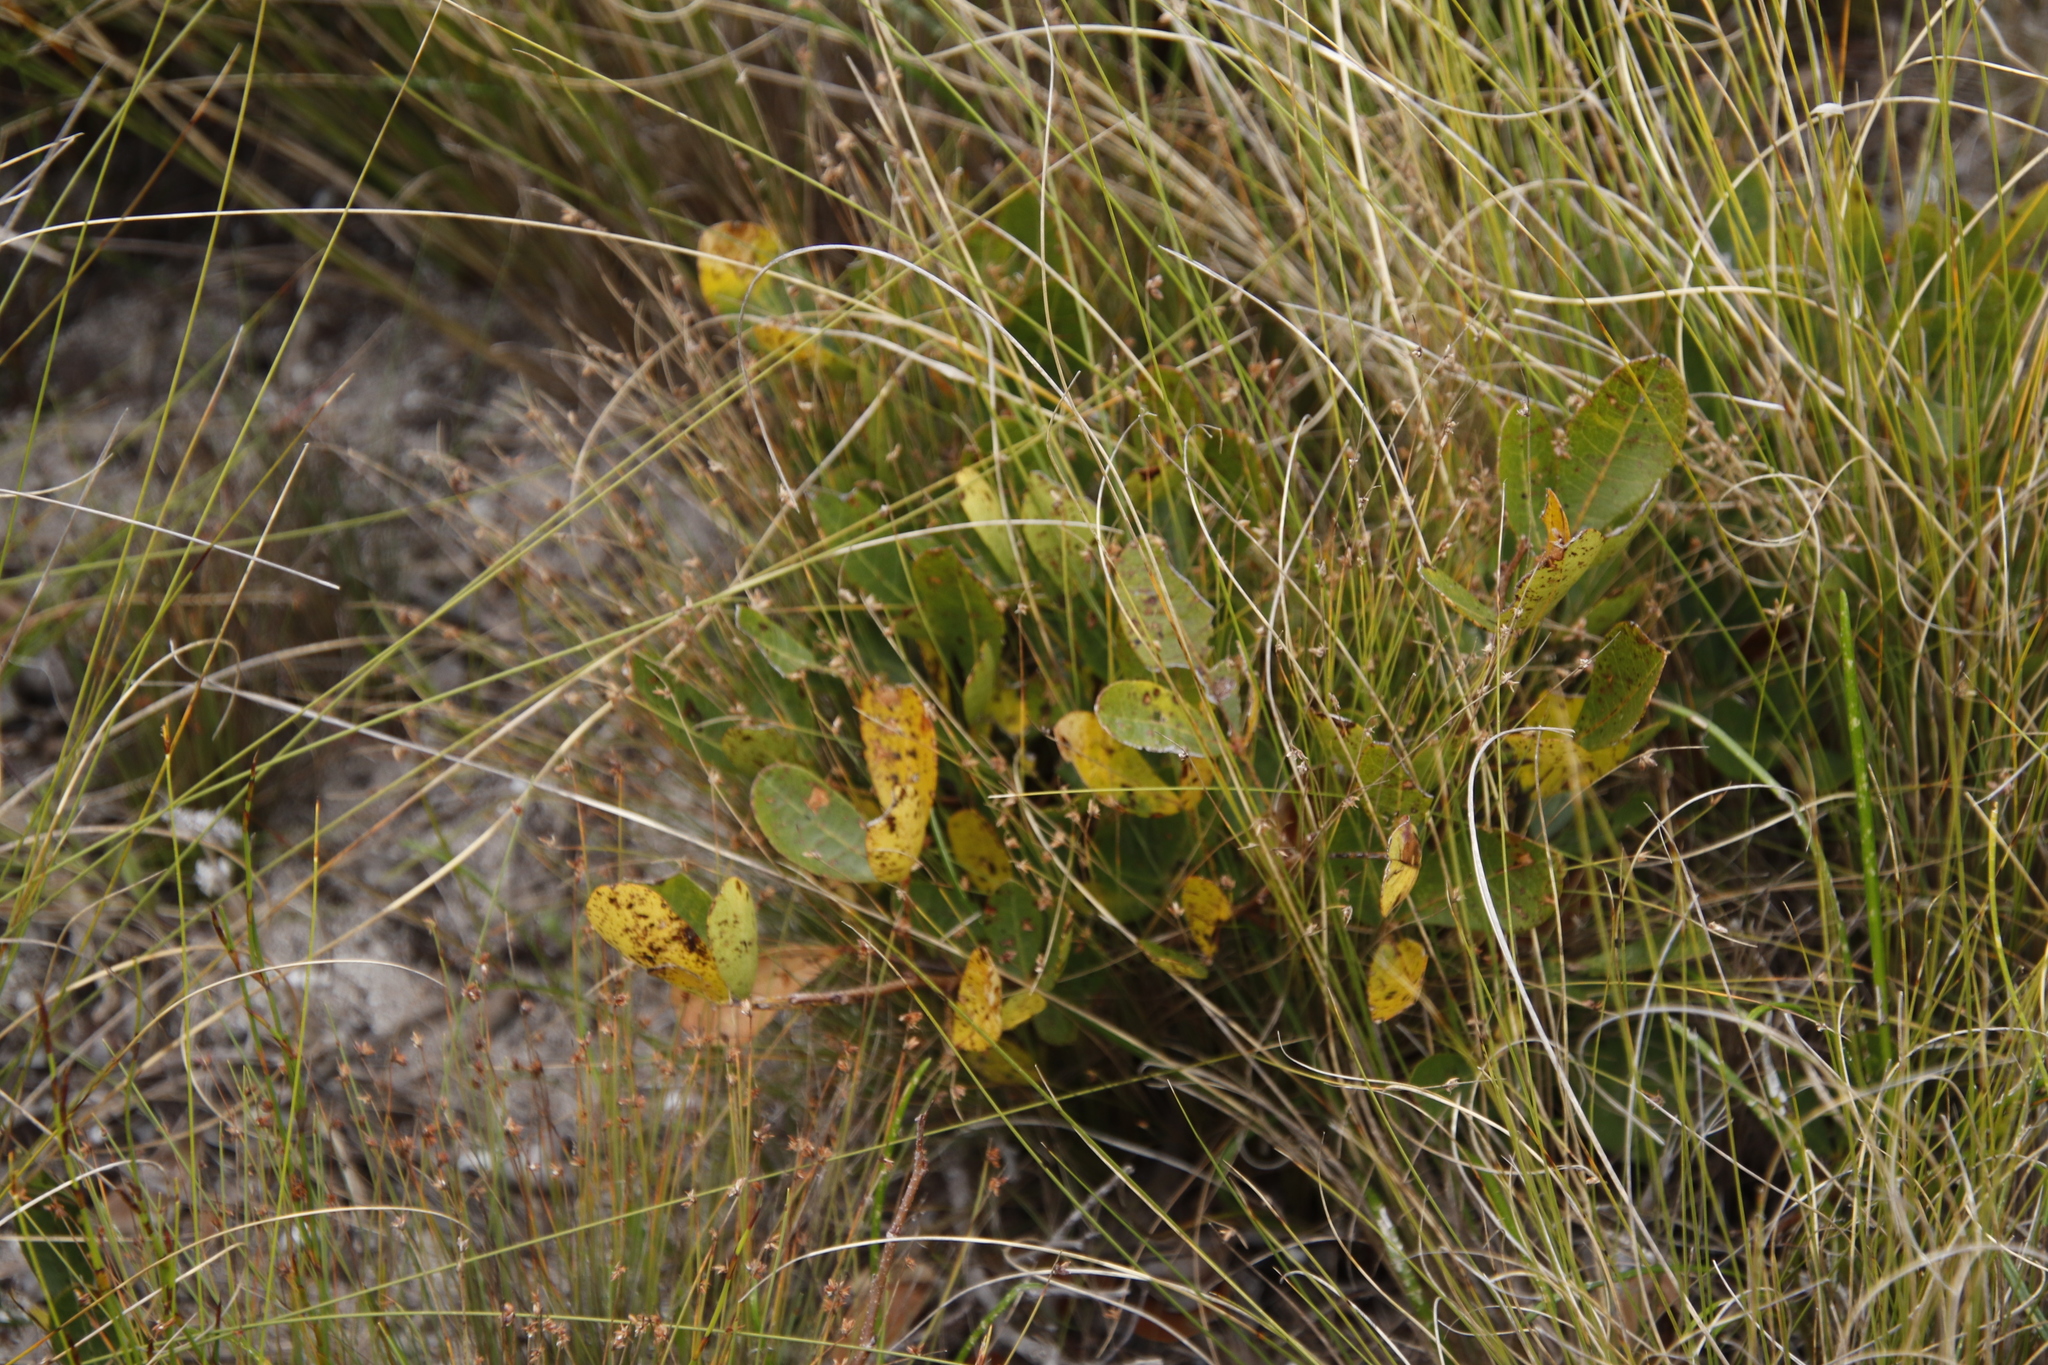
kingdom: Plantae
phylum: Tracheophyta
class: Magnoliopsida
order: Sapindales
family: Anacardiaceae
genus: Searsia
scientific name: Searsia laevigata
